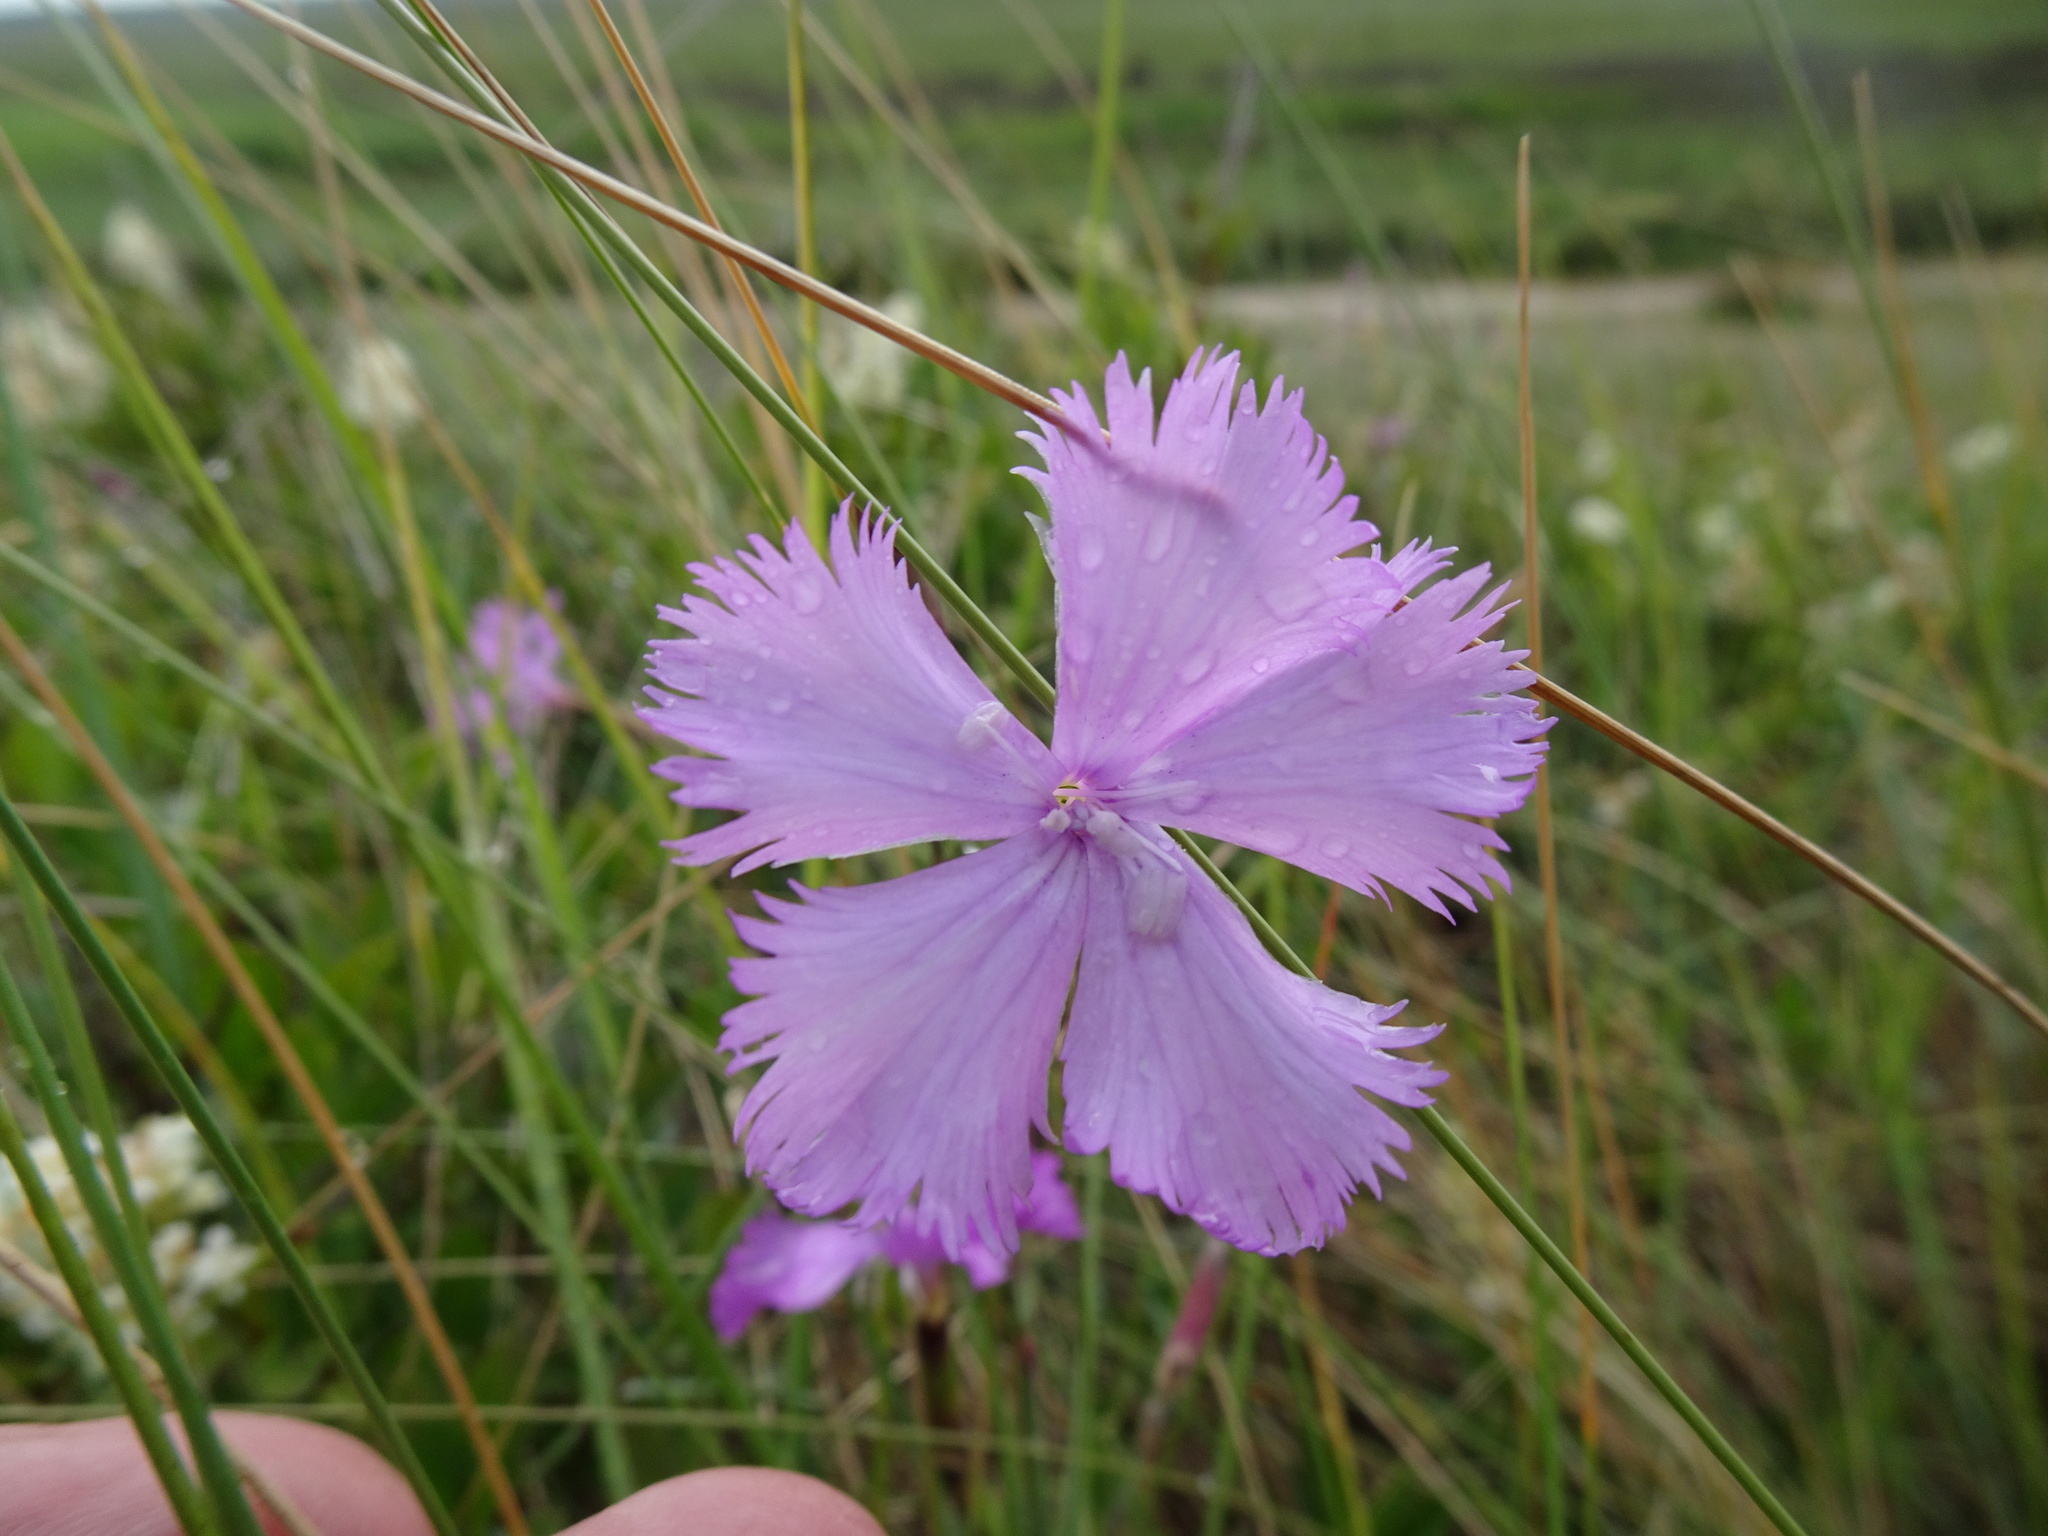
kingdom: Plantae
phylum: Tracheophyta
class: Magnoliopsida
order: Caryophyllales
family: Caryophyllaceae
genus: Dianthus
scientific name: Dianthus gallicus
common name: Jersey pink
